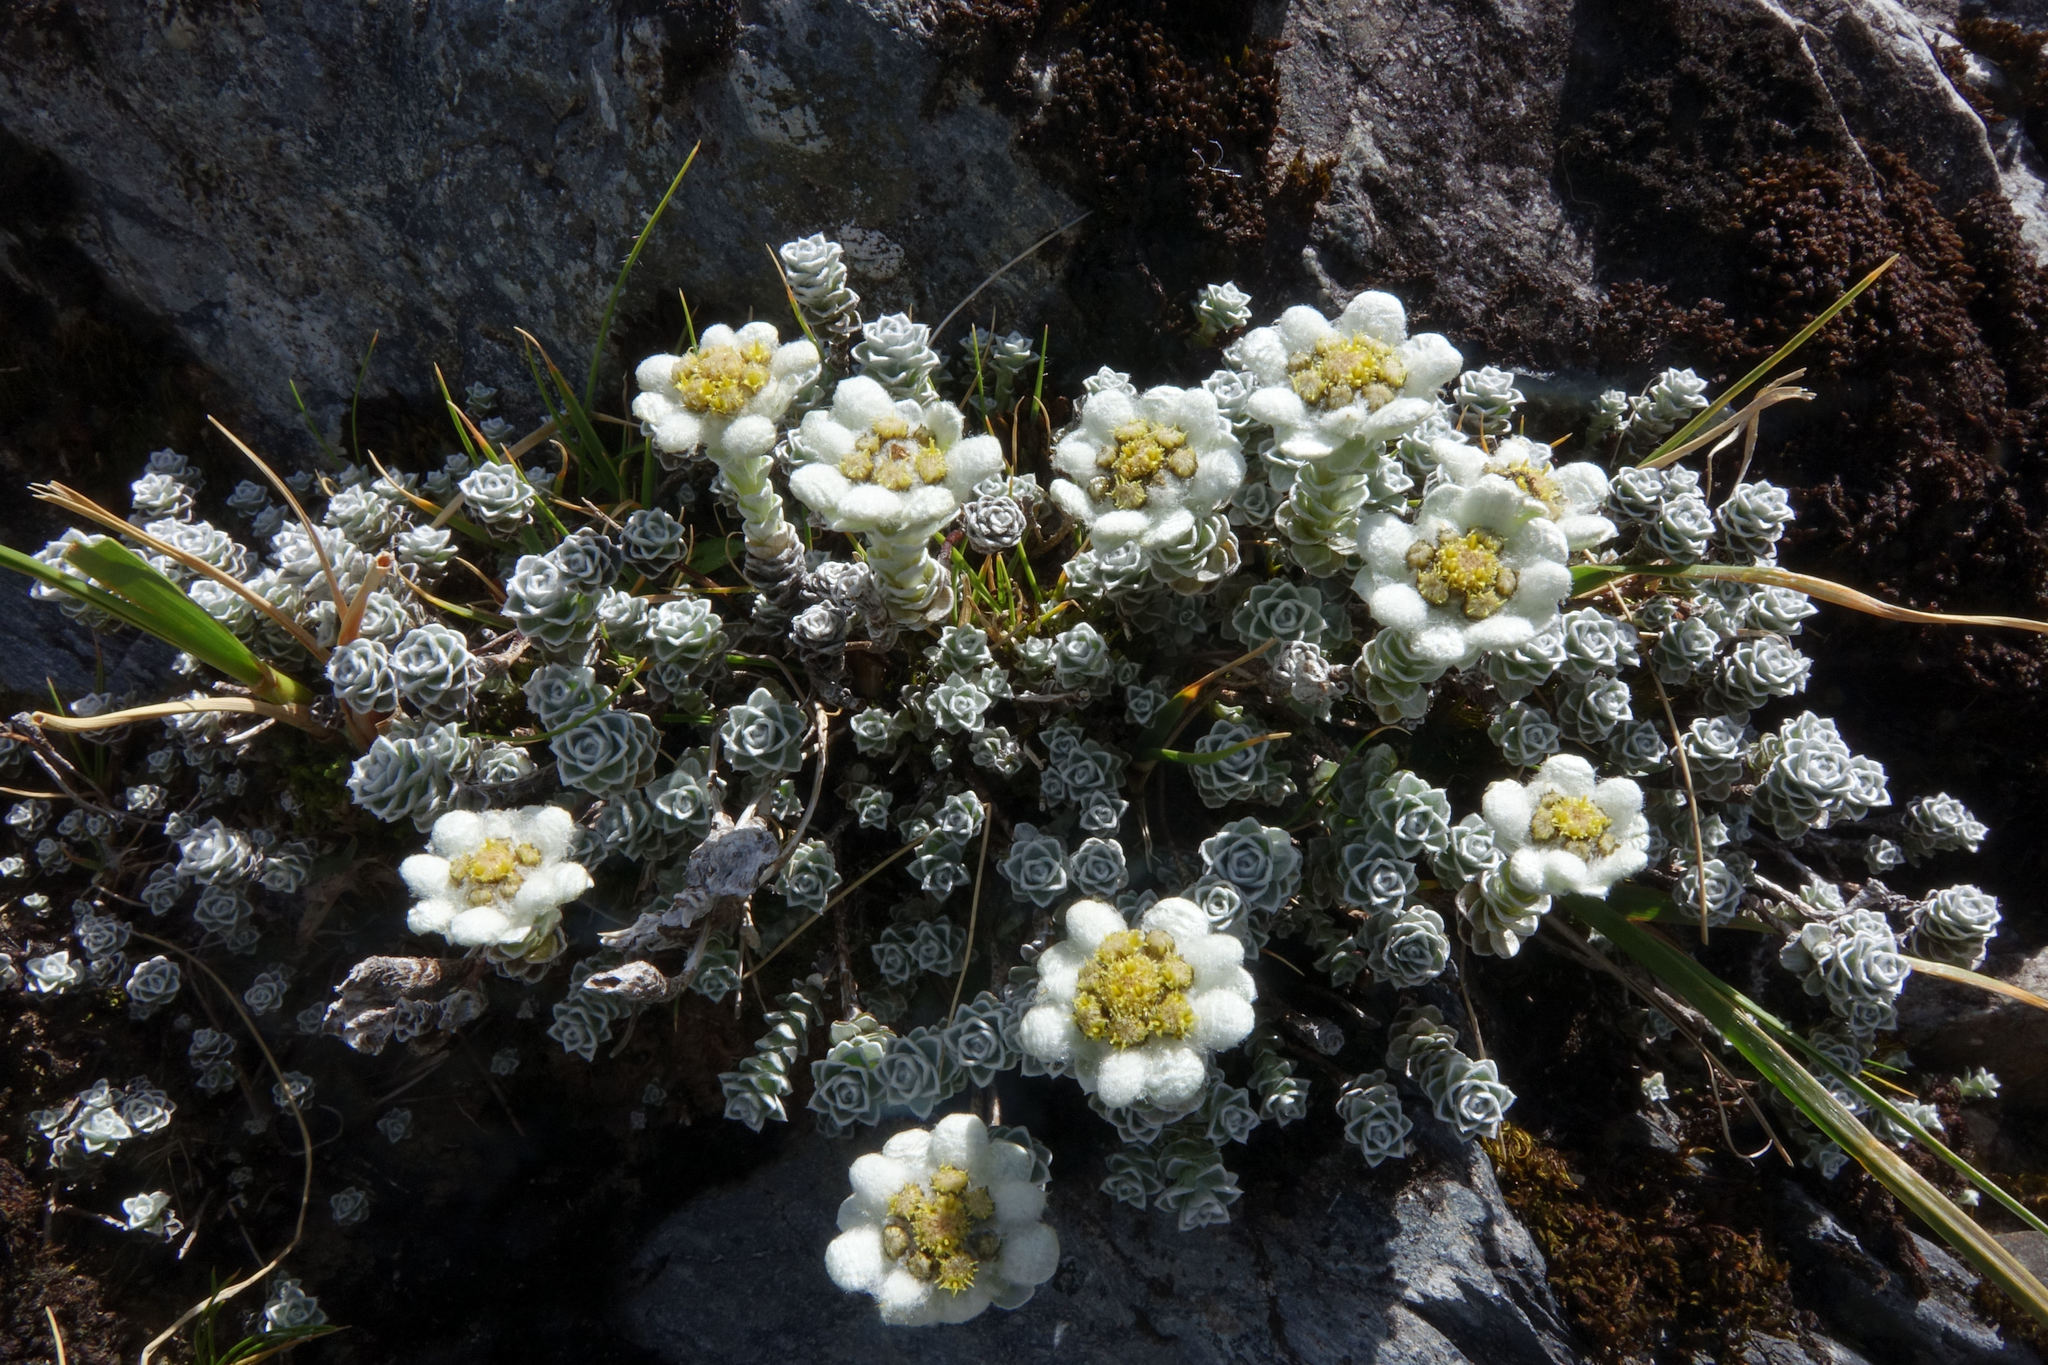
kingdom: Plantae
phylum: Tracheophyta
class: Magnoliopsida
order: Asterales
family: Asteraceae
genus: Leucogenes
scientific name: Leucogenes grandiceps
